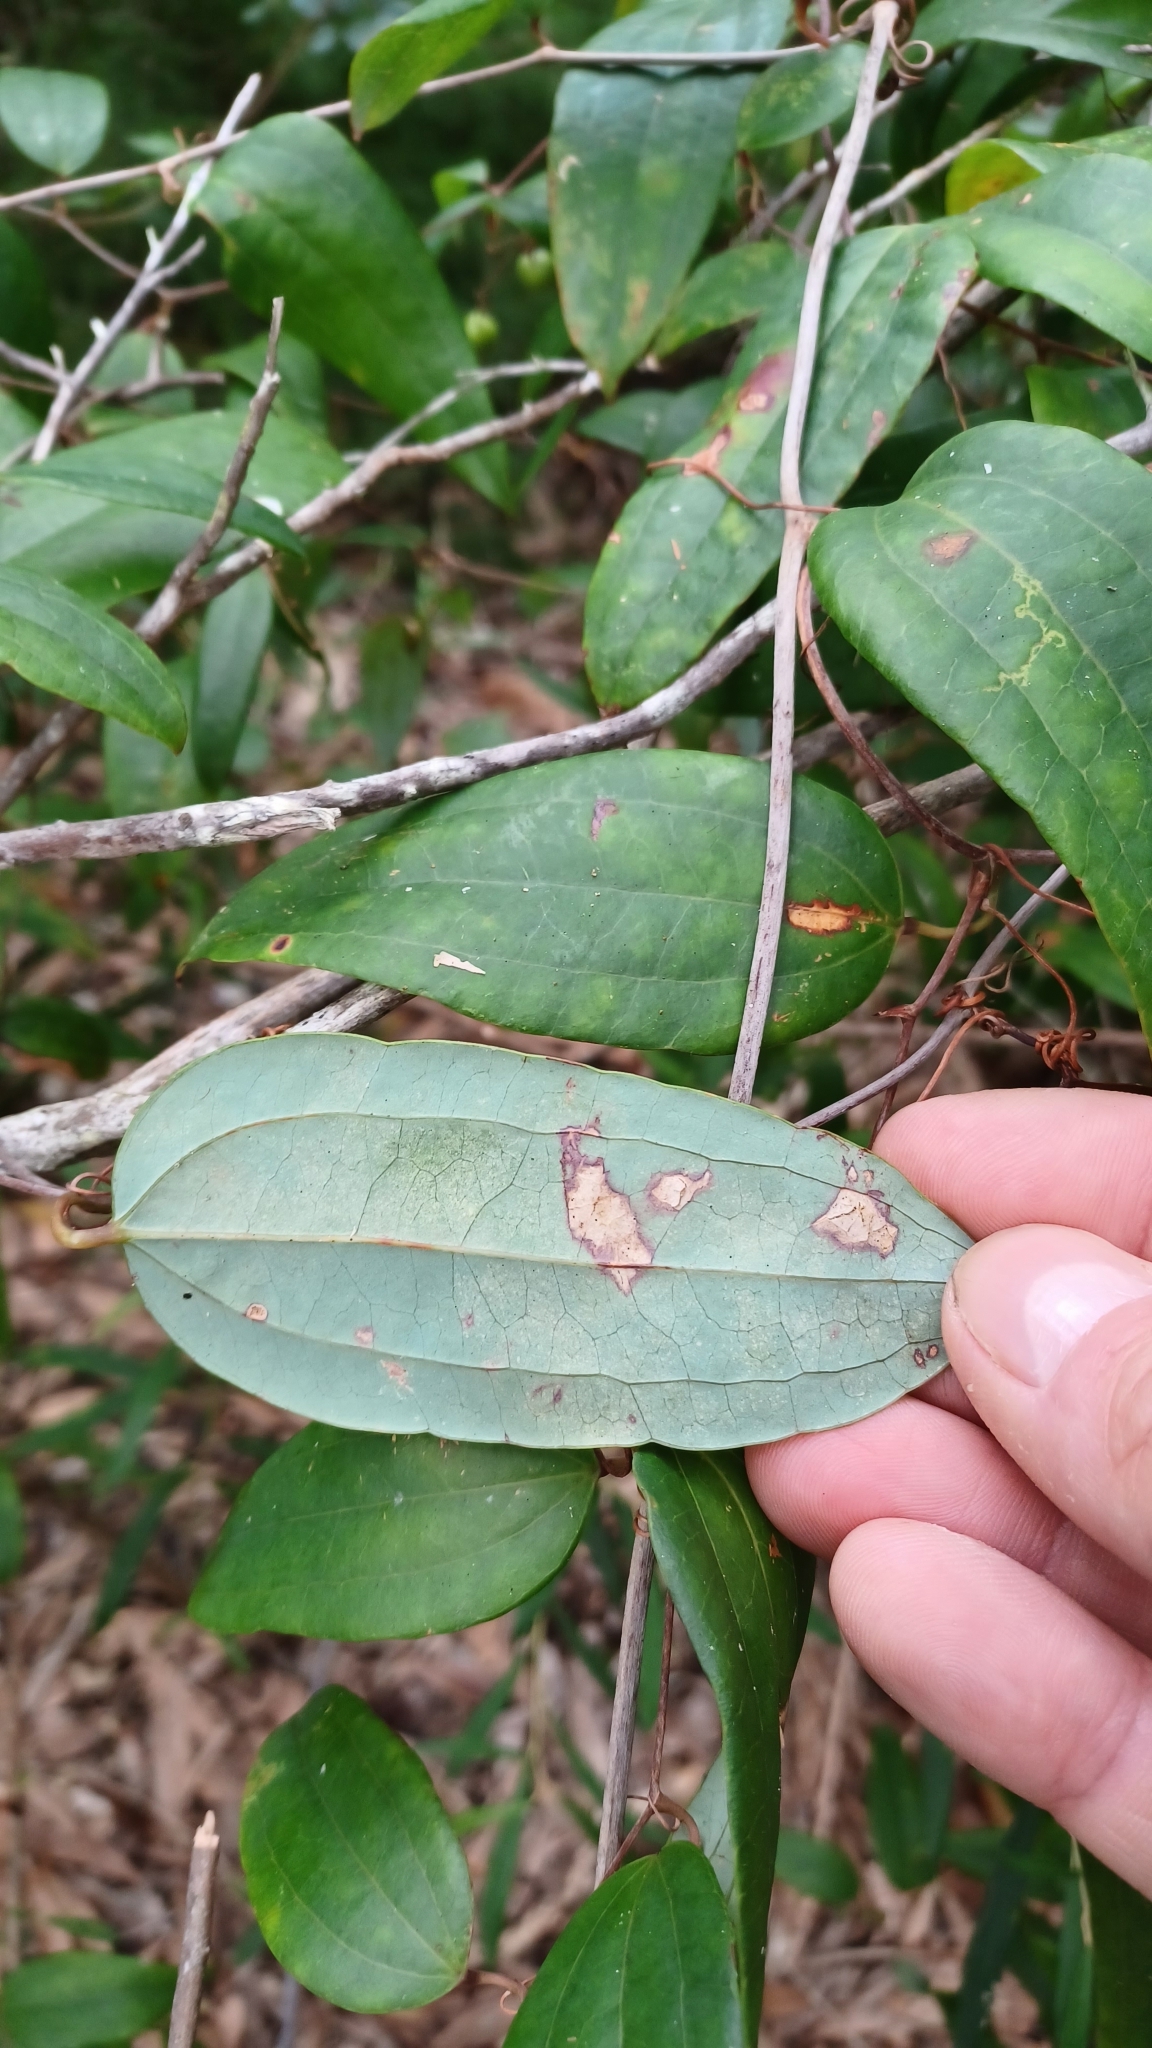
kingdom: Plantae
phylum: Tracheophyta
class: Liliopsida
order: Liliales
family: Smilacaceae
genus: Smilax
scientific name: Smilax glyciphylla
